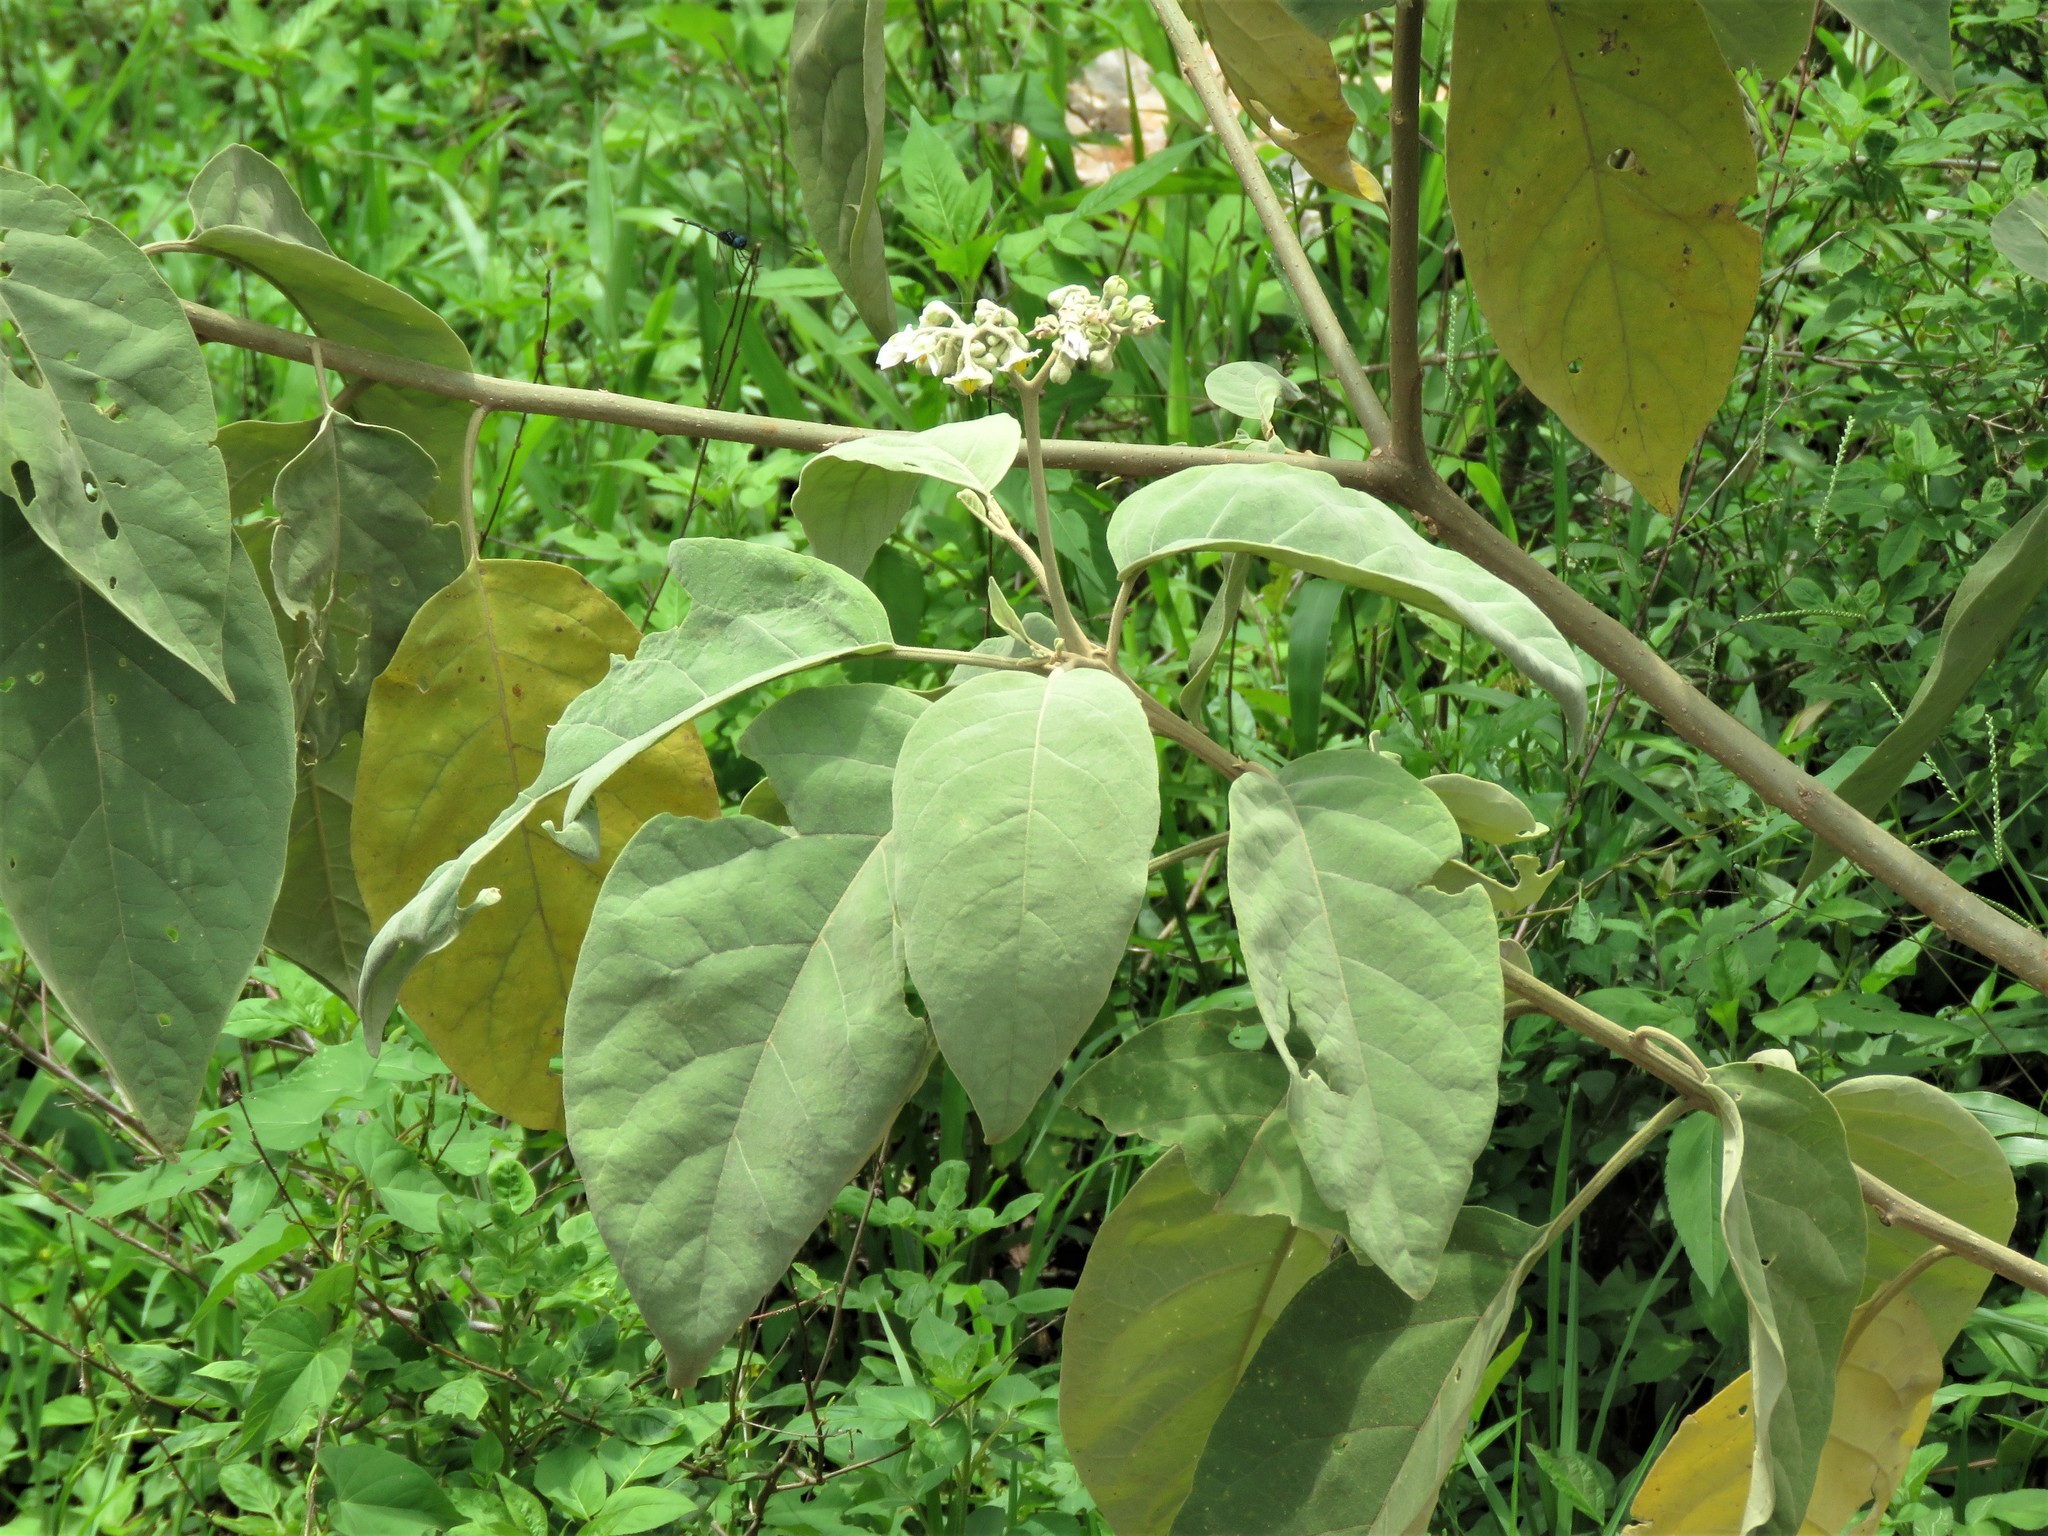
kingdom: Plantae
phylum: Tracheophyta
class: Magnoliopsida
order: Solanales
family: Solanaceae
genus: Solanum
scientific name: Solanum erianthum
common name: Tobacco-tree
